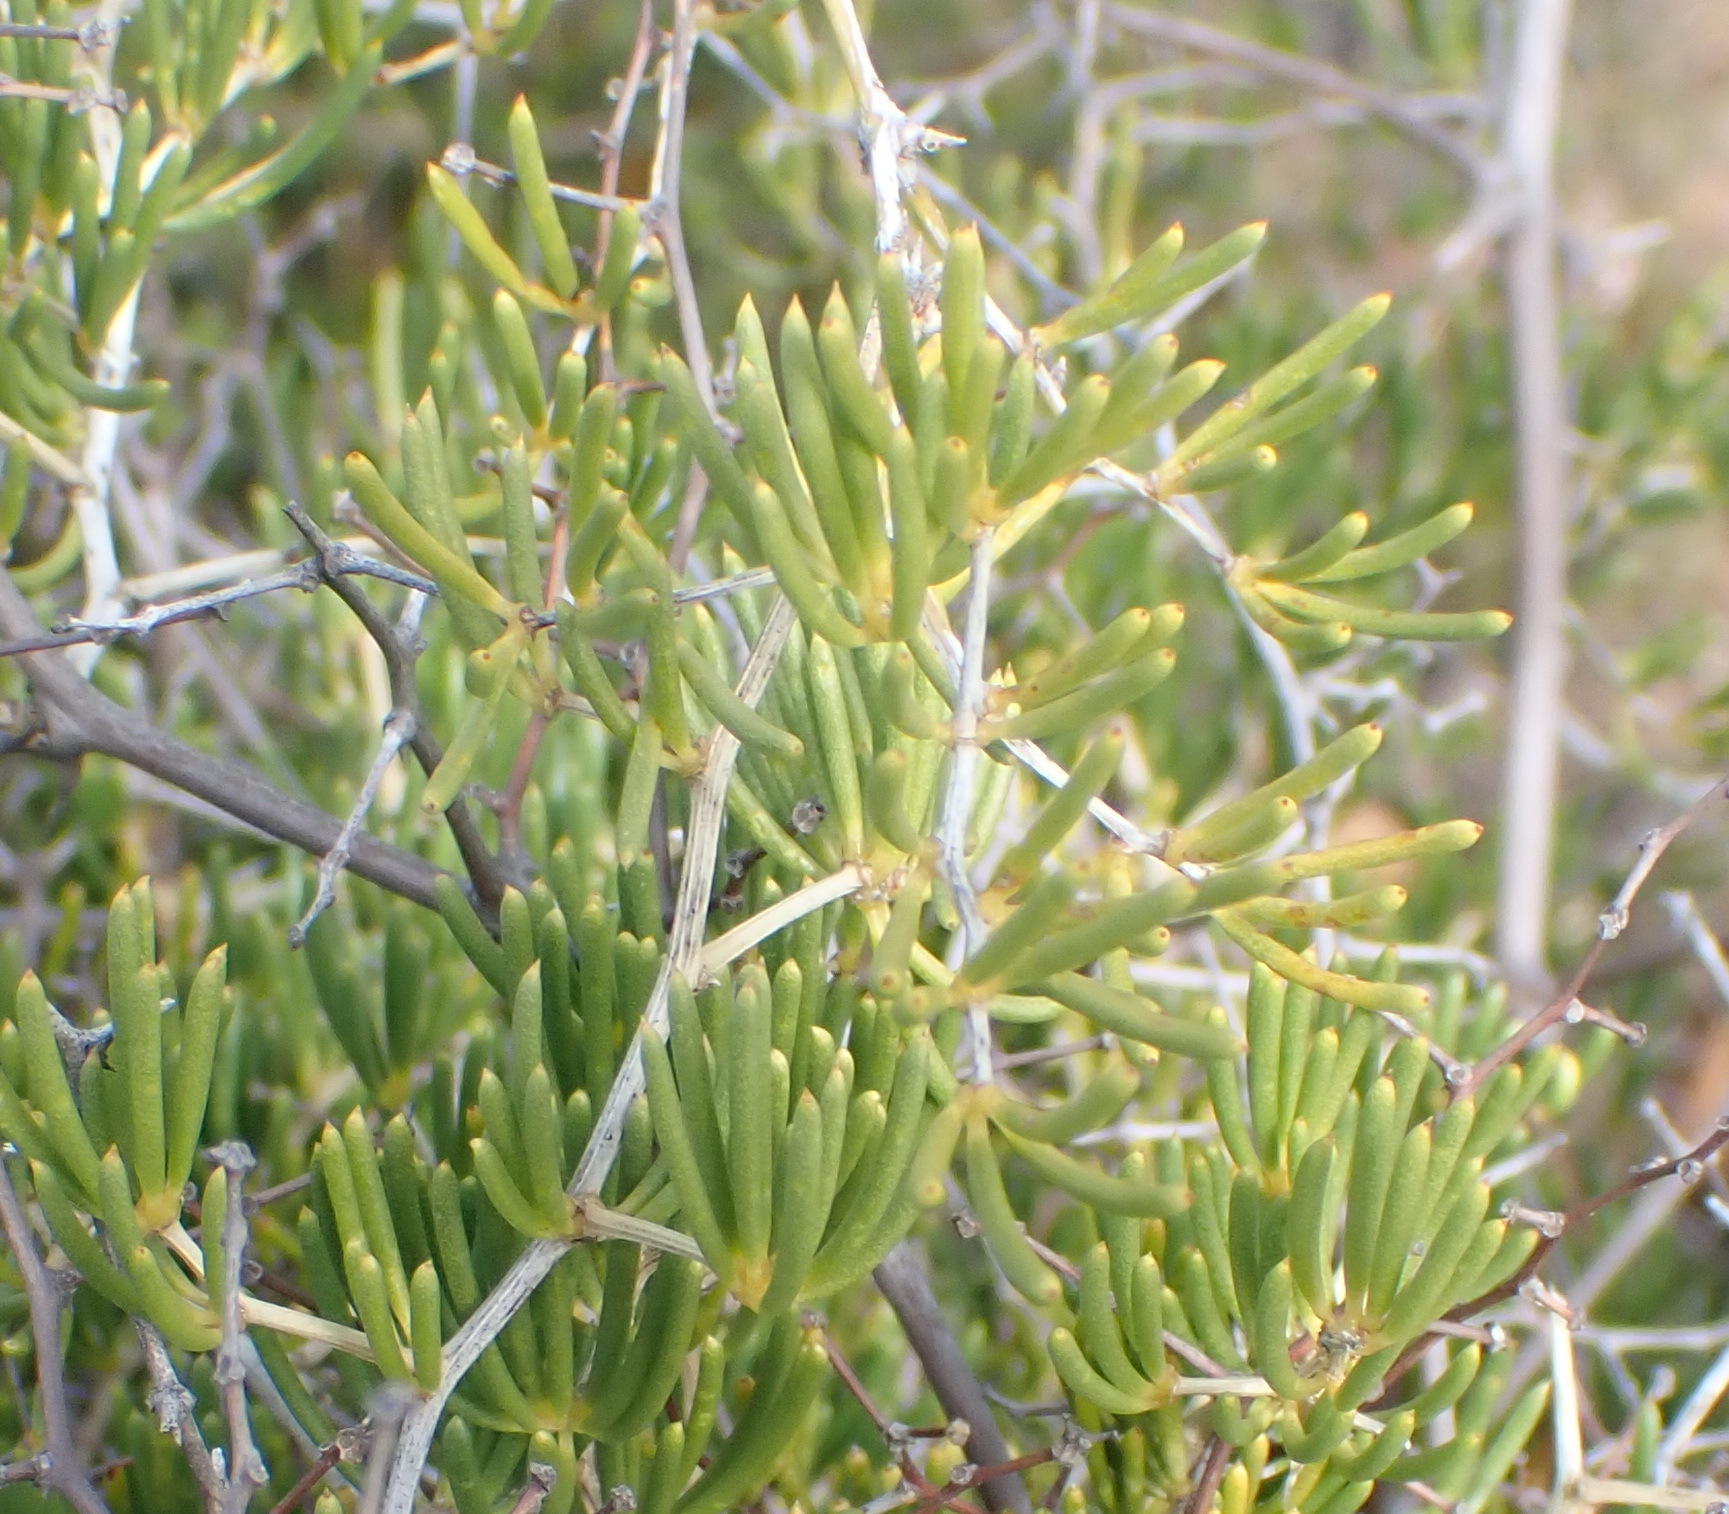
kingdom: Plantae
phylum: Tracheophyta
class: Liliopsida
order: Asparagales
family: Asparagaceae
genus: Asparagus
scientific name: Asparagus crassicladus
